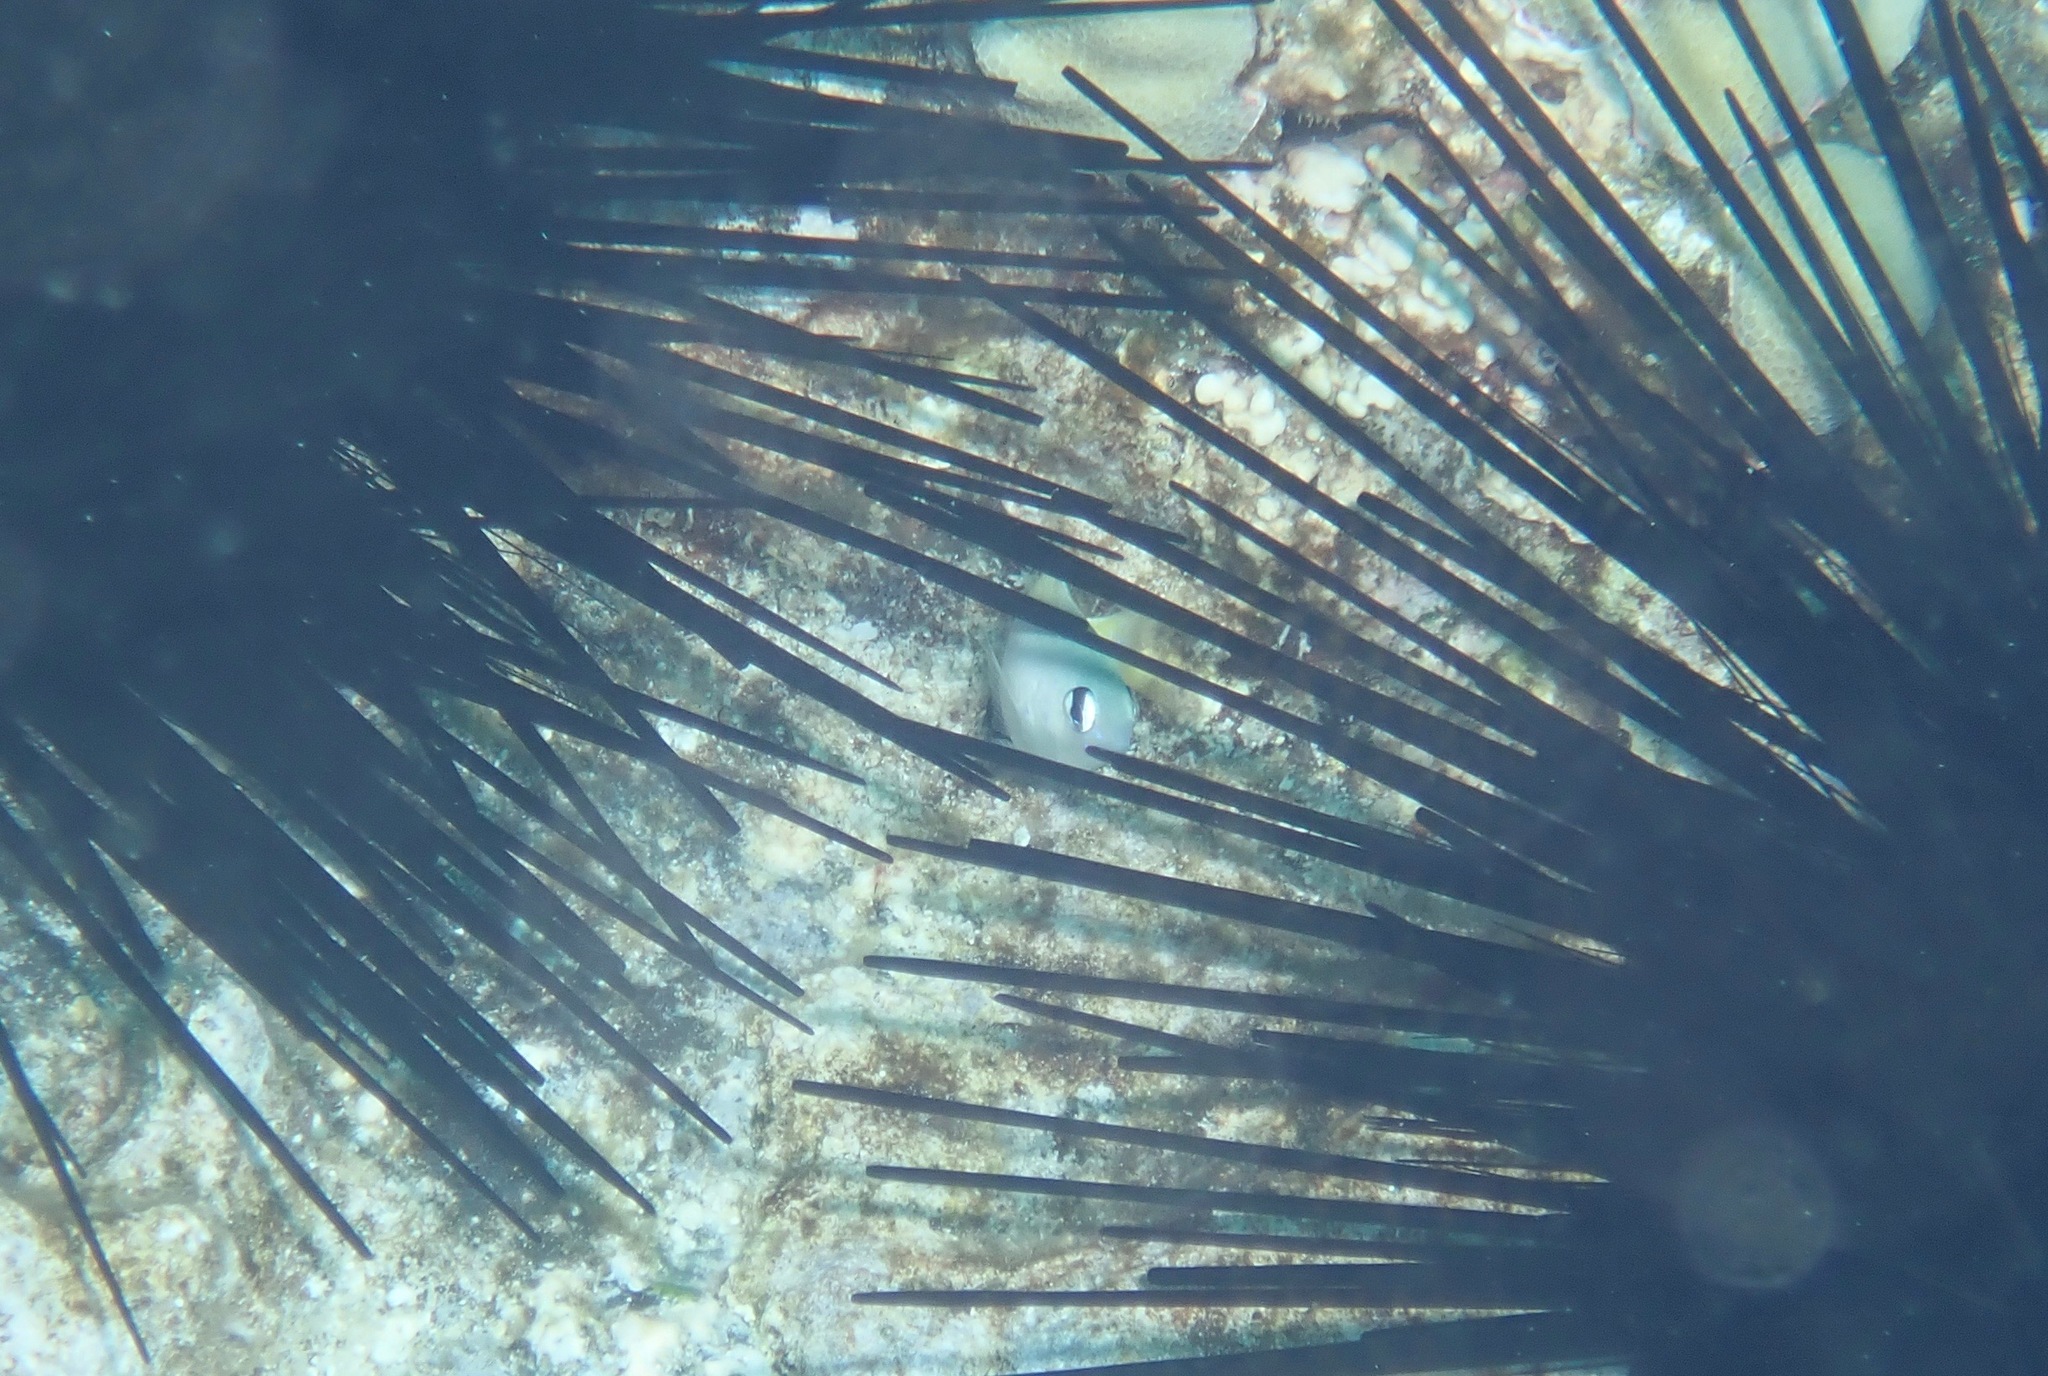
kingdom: Animalia
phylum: Chordata
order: Perciformes
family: Pomacentridae
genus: Plectroglyphidodon
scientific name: Plectroglyphidodon imparipennis
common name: Brighteye damsel
